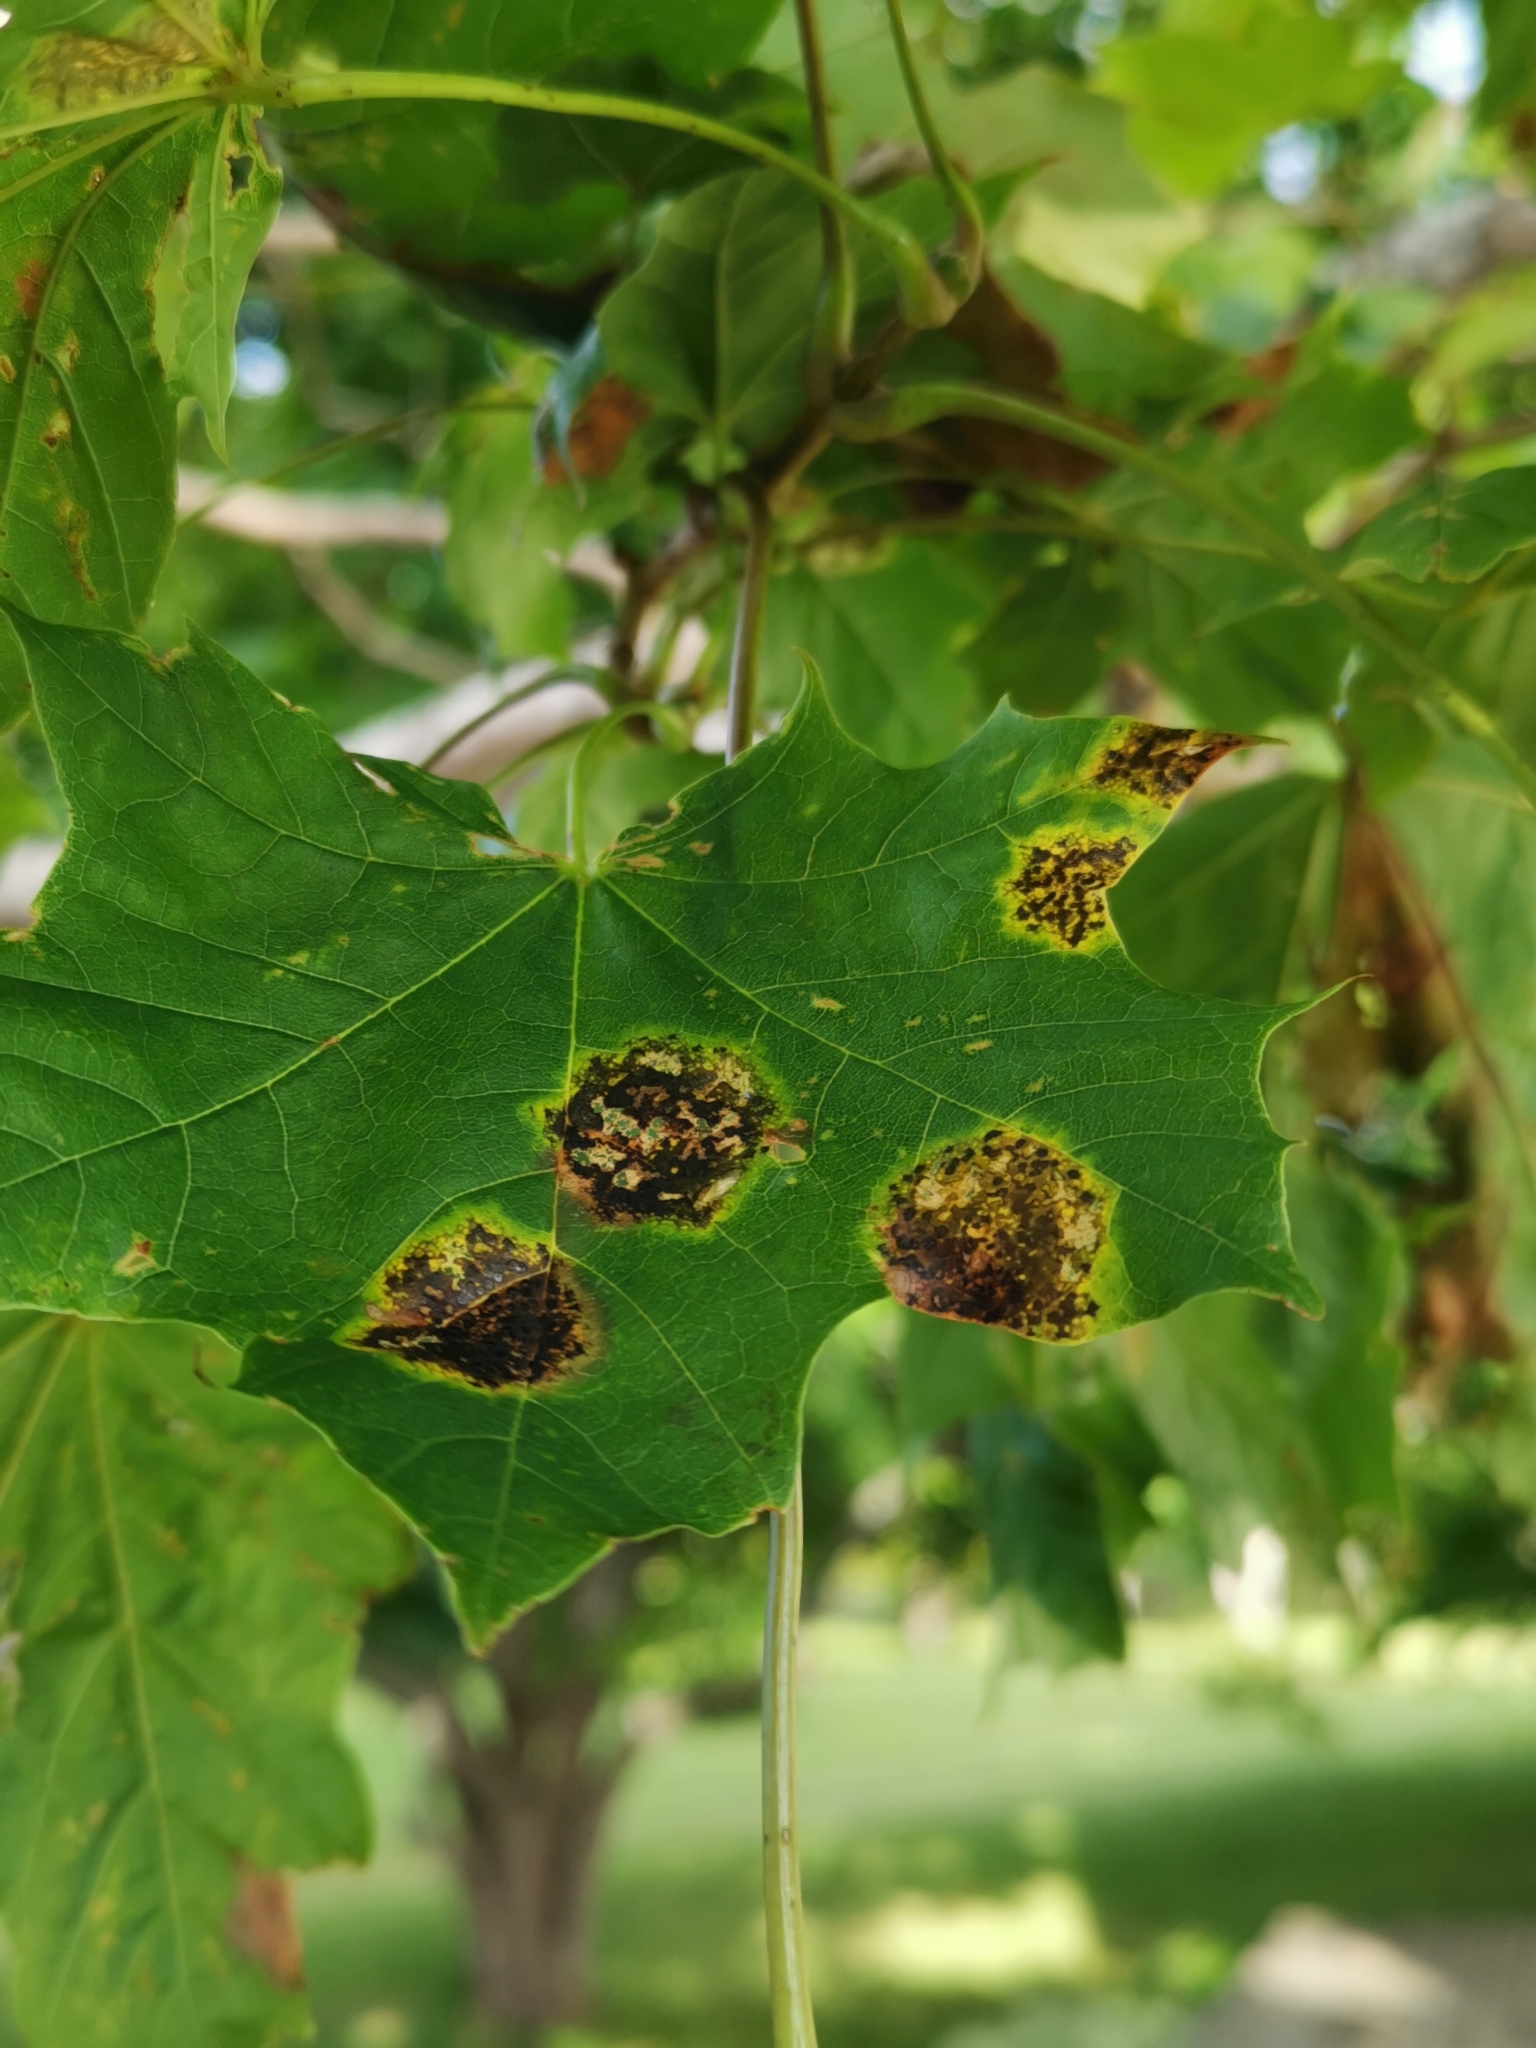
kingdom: Fungi
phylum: Ascomycota
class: Leotiomycetes
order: Rhytismatales
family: Rhytismataceae
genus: Rhytisma
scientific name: Rhytisma acerinum
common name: European tar spot
